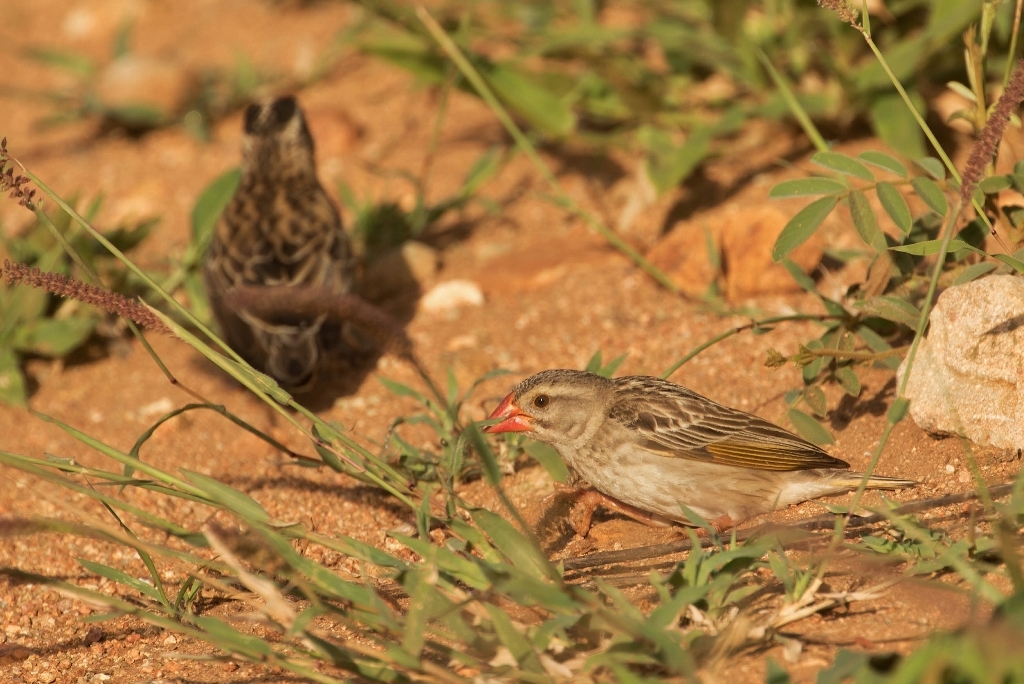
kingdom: Animalia
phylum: Chordata
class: Aves
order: Passeriformes
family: Ploceidae
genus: Quelea
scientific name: Quelea quelea
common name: Red-billed quelea
